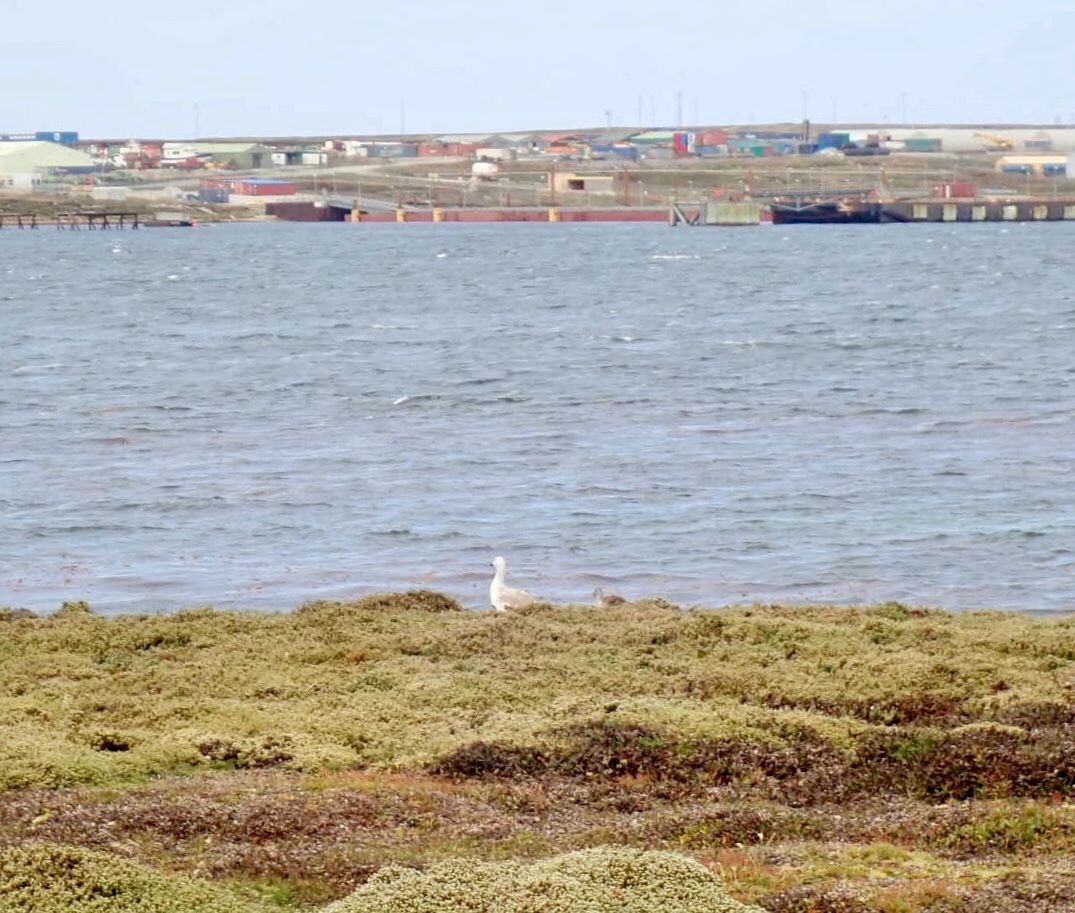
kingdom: Animalia
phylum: Chordata
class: Aves
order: Anseriformes
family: Anatidae
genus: Chloephaga
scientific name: Chloephaga picta
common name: Upland goose
